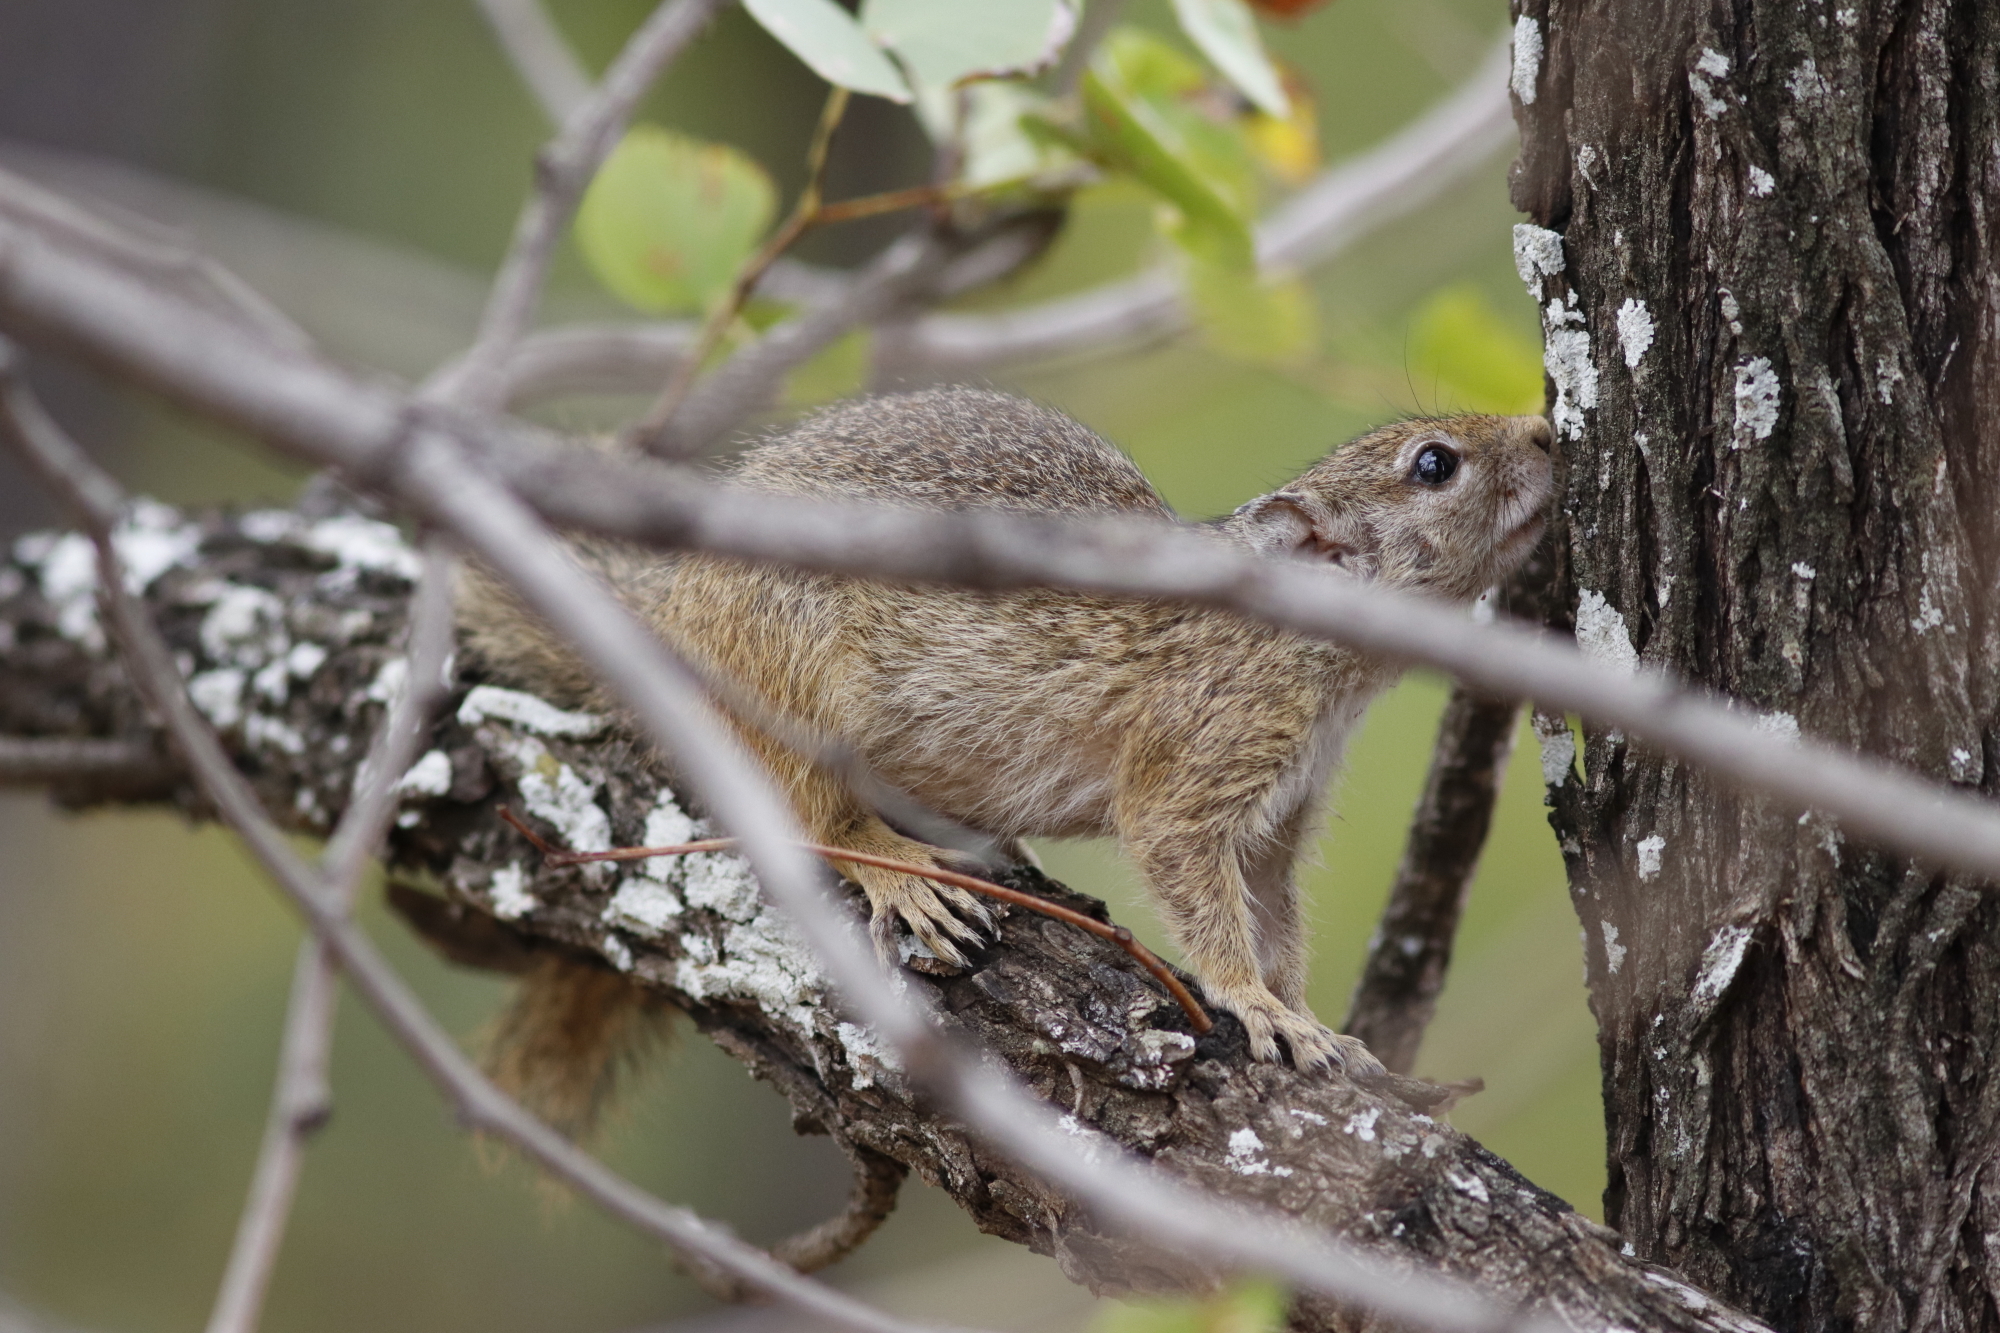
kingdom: Animalia
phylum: Chordata
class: Mammalia
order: Rodentia
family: Sciuridae
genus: Paraxerus
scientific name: Paraxerus cepapi
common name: Smith's bush squirrel
